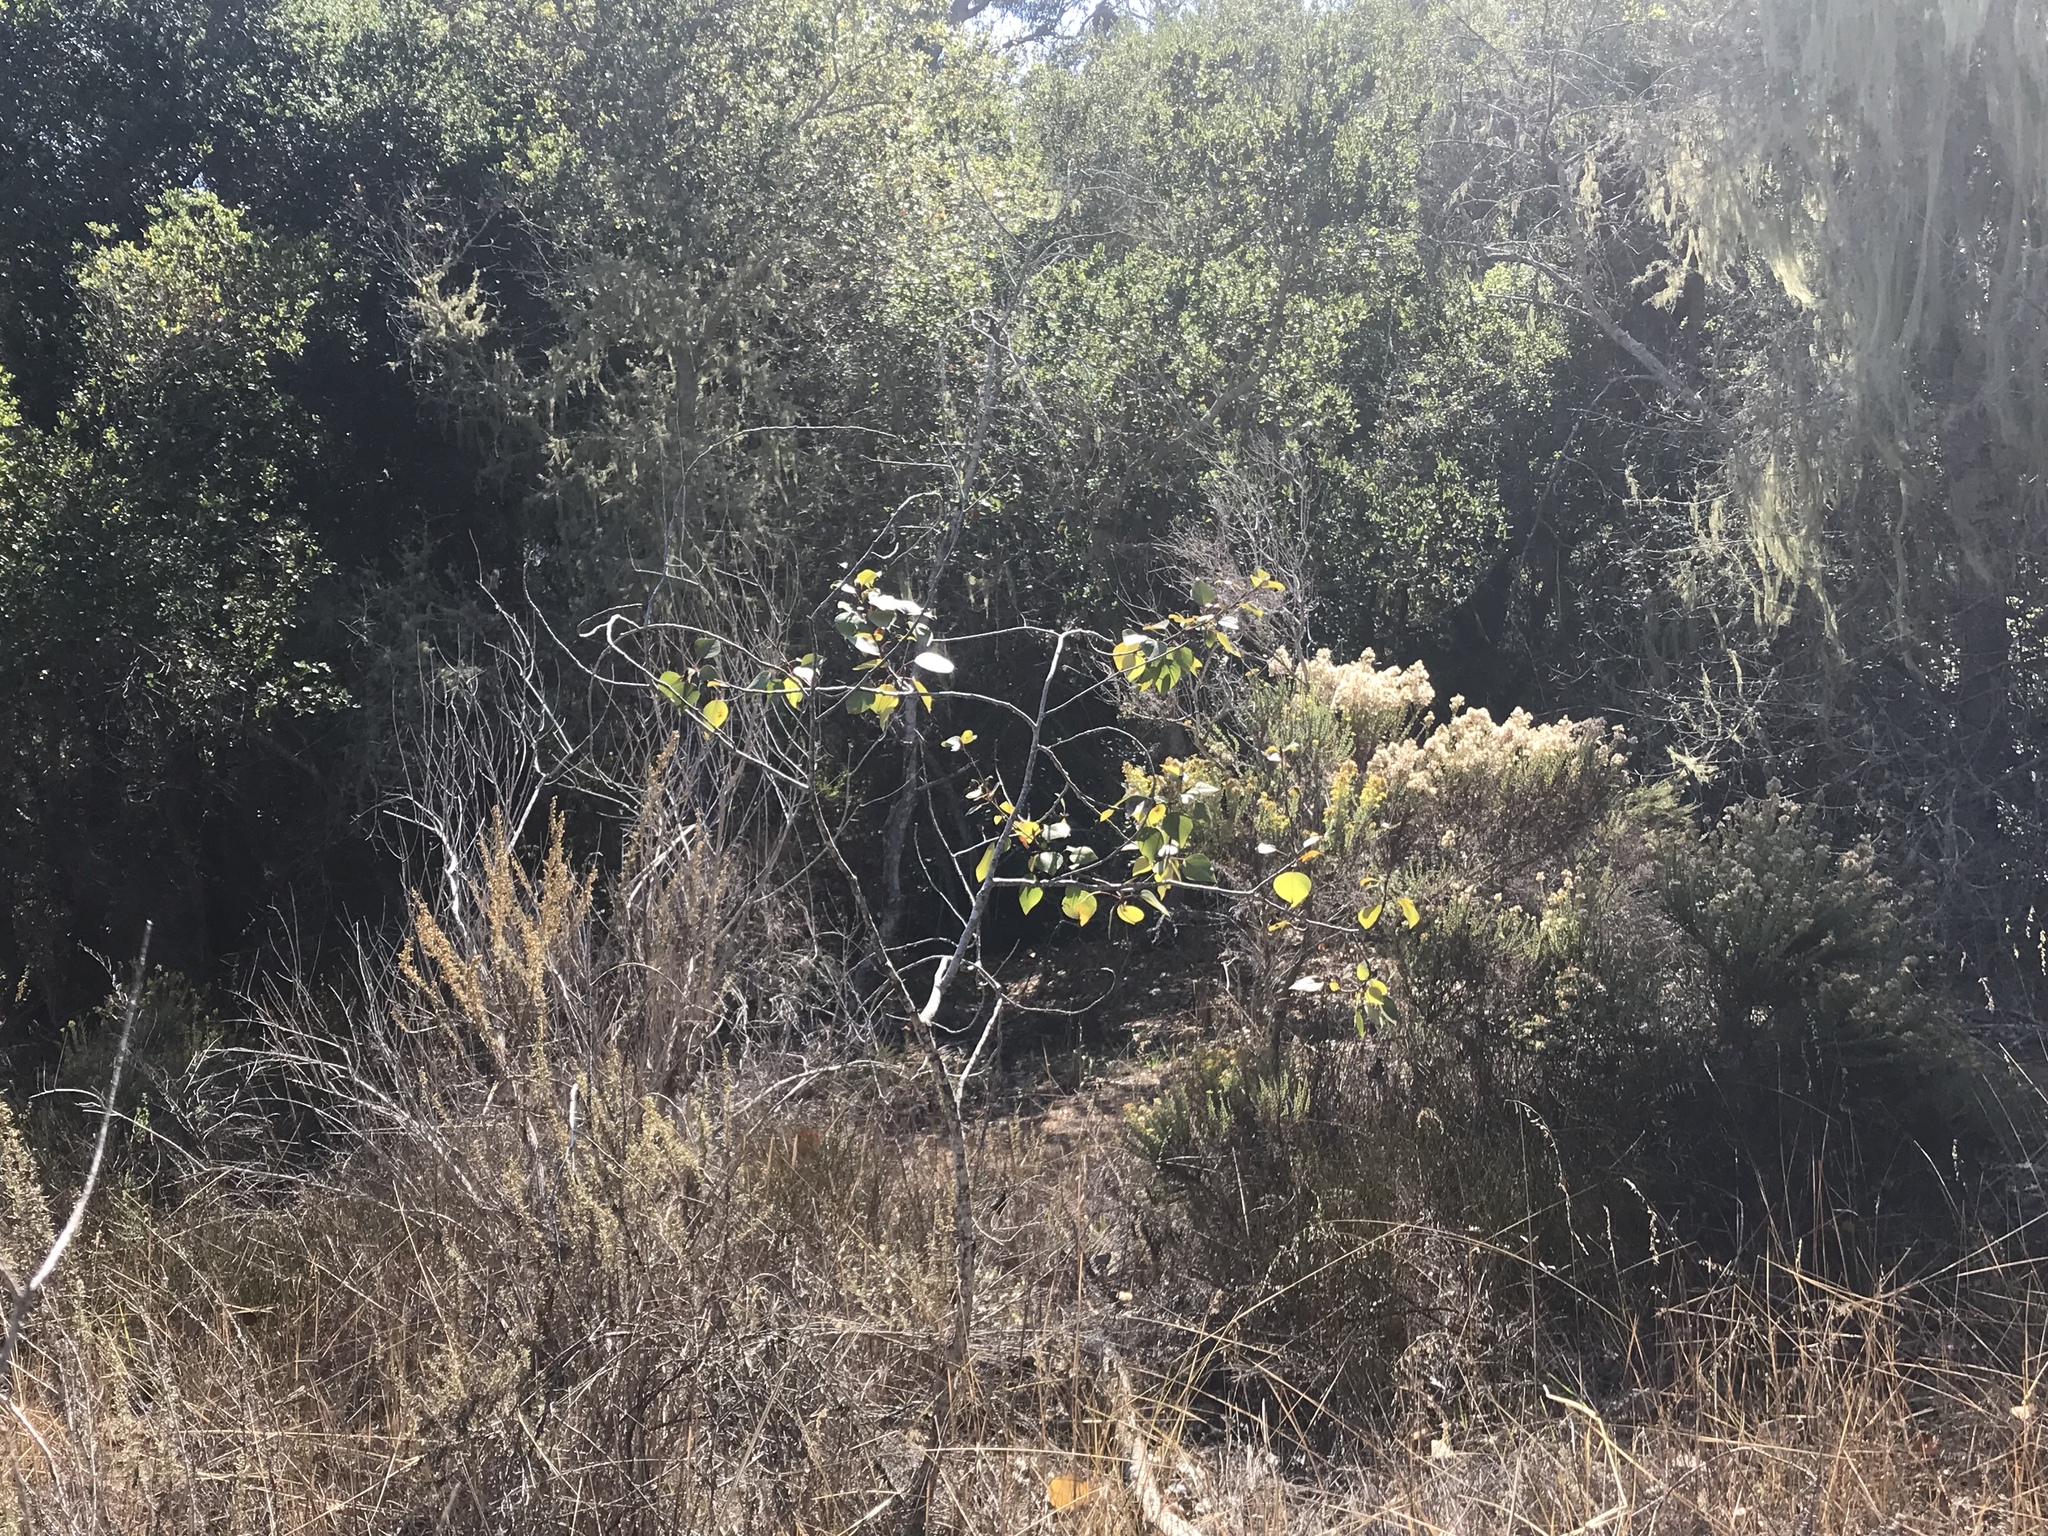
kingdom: Plantae
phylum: Tracheophyta
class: Magnoliopsida
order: Malpighiales
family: Salicaceae
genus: Populus
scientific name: Populus trichocarpa
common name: Black cottonwood
